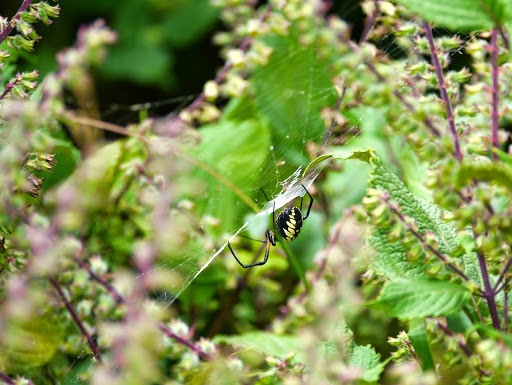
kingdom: Animalia
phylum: Arthropoda
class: Arachnida
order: Araneae
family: Araneidae
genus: Argiope
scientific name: Argiope aurantia
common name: Orb weavers
